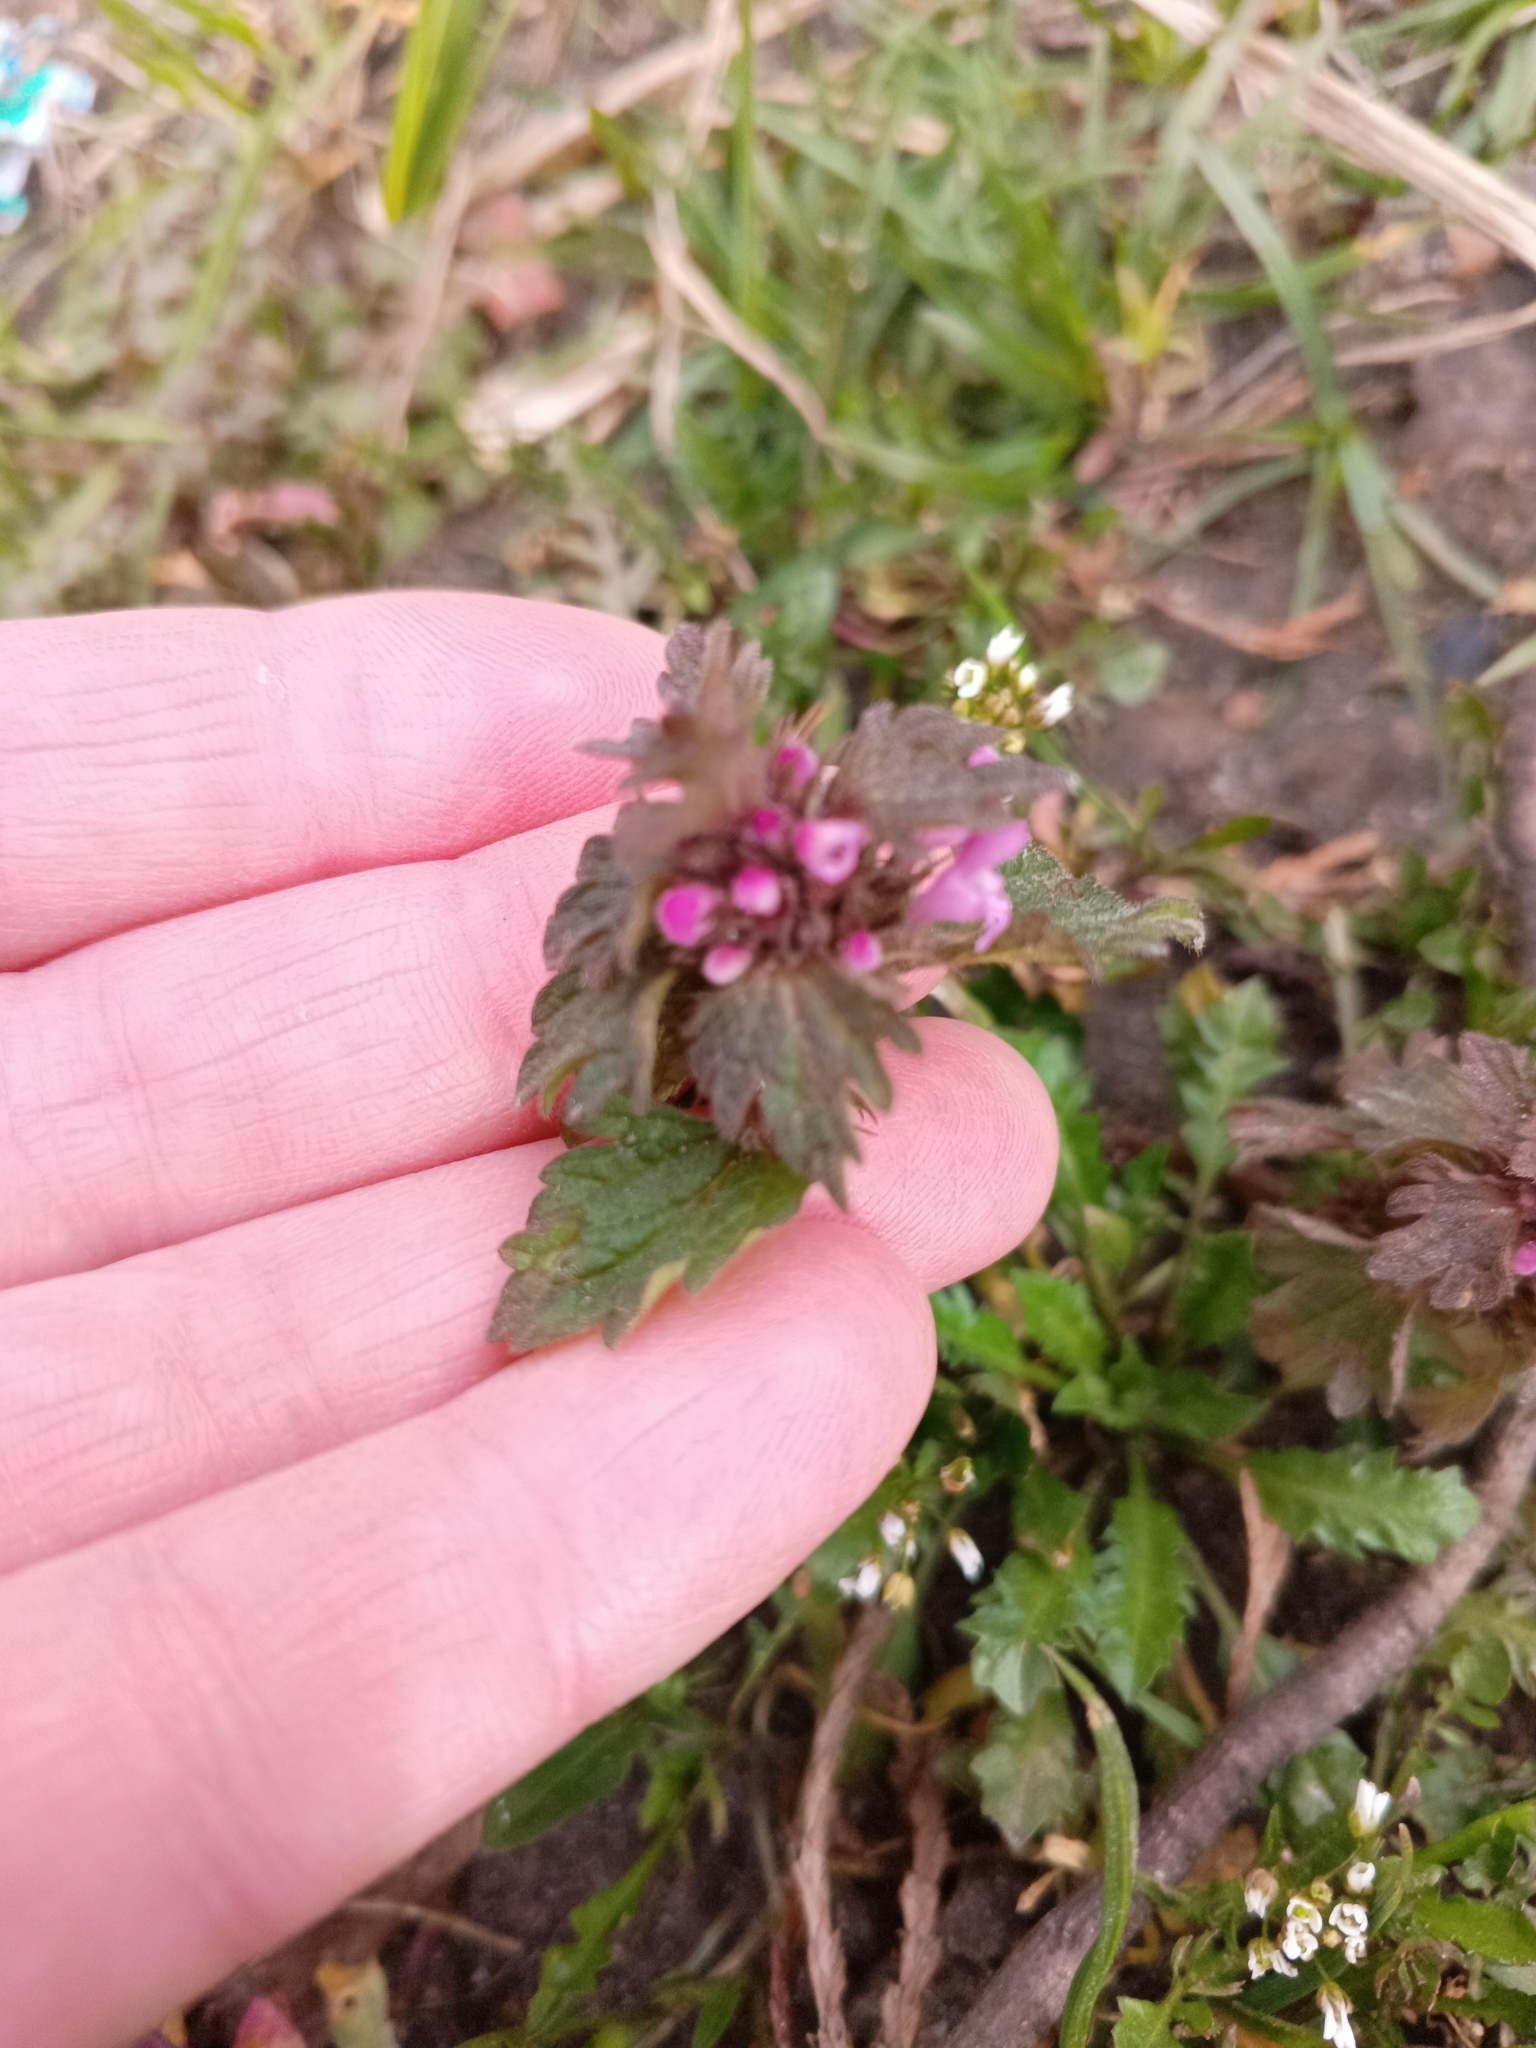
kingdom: Plantae
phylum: Tracheophyta
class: Magnoliopsida
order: Lamiales
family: Lamiaceae
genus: Lamium
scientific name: Lamium hybridum
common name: Cut-leaved dead-nettle
